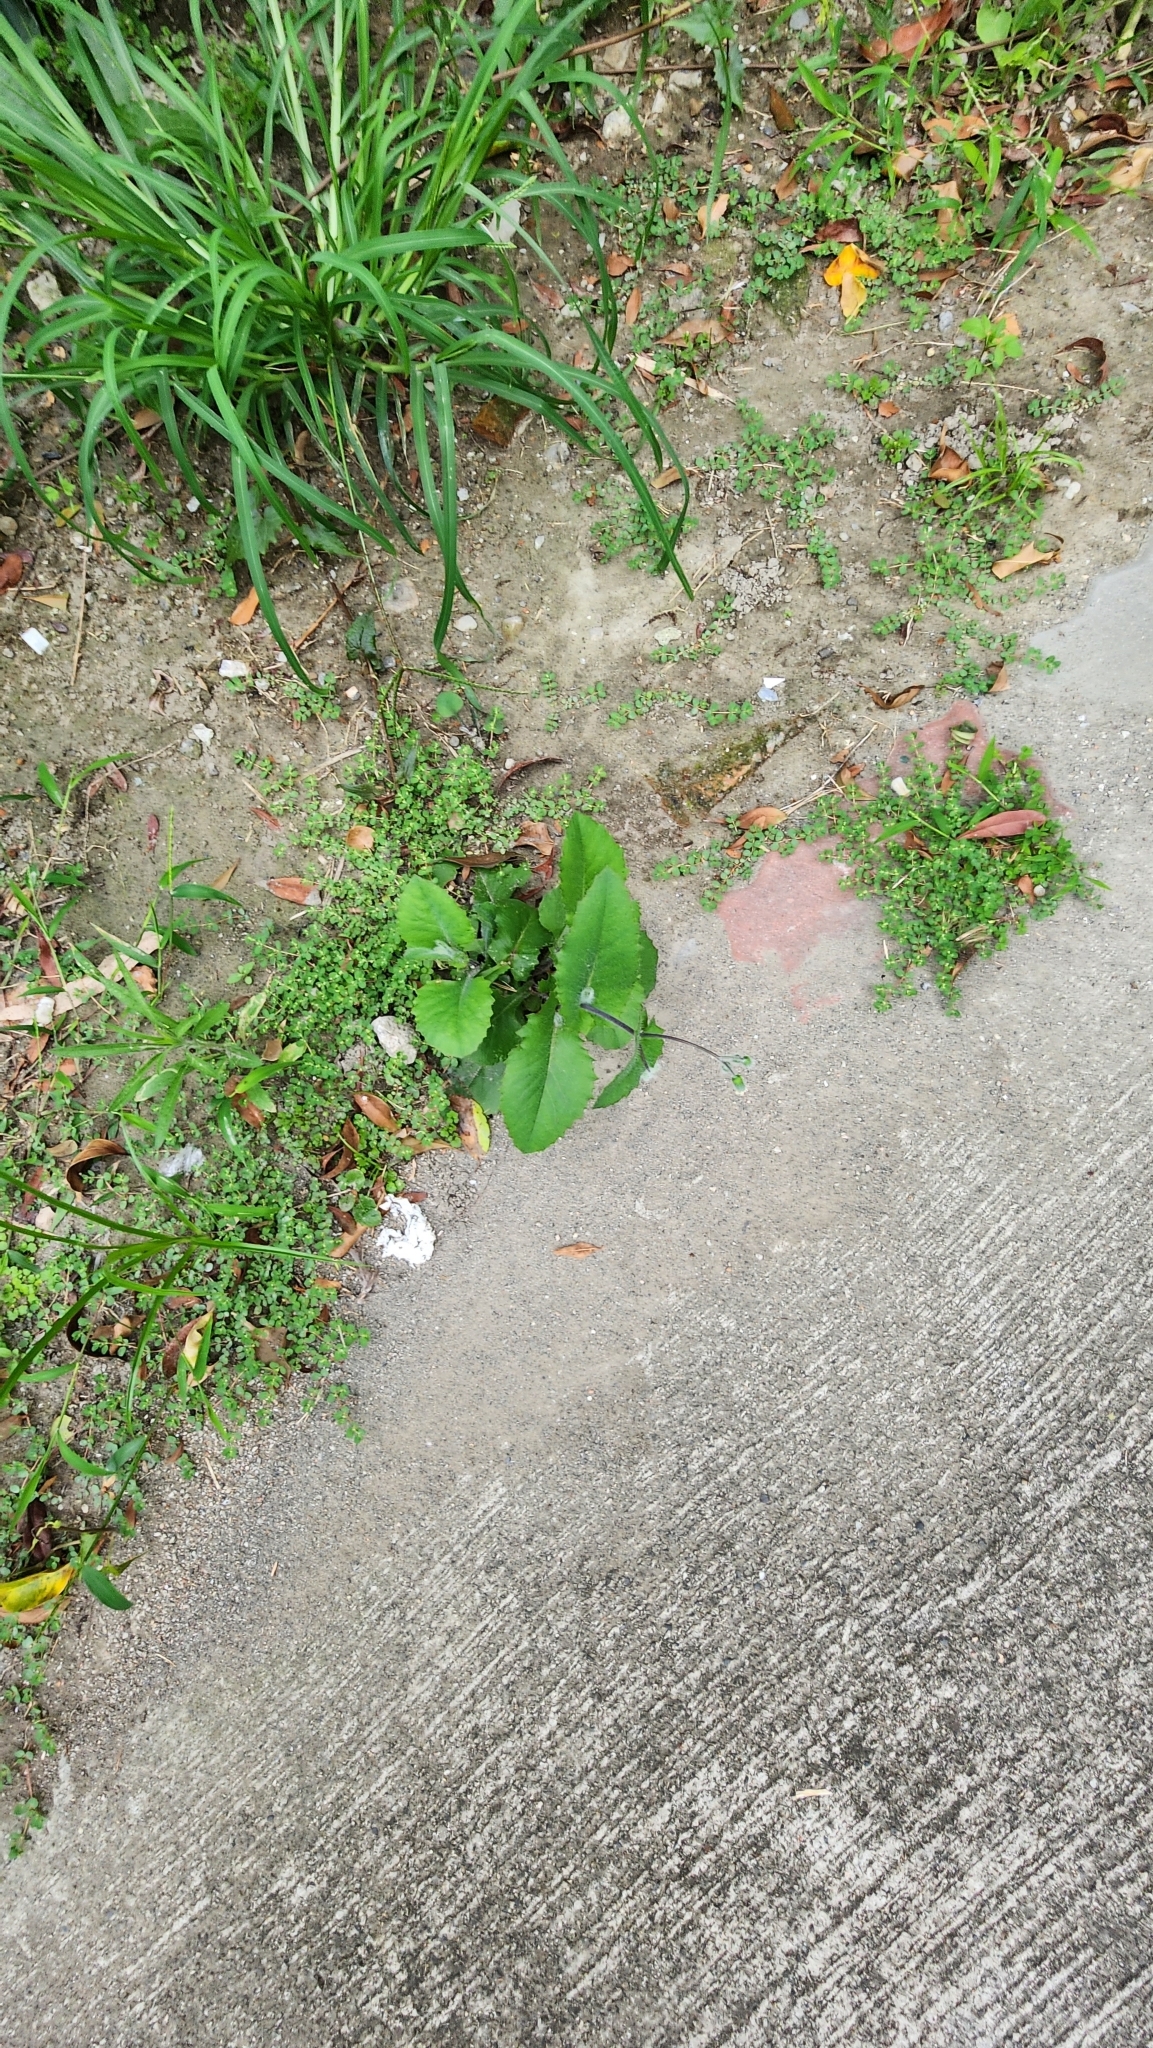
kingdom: Plantae
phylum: Tracheophyta
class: Magnoliopsida
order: Asterales
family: Asteraceae
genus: Emilia
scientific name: Emilia praetermissa
